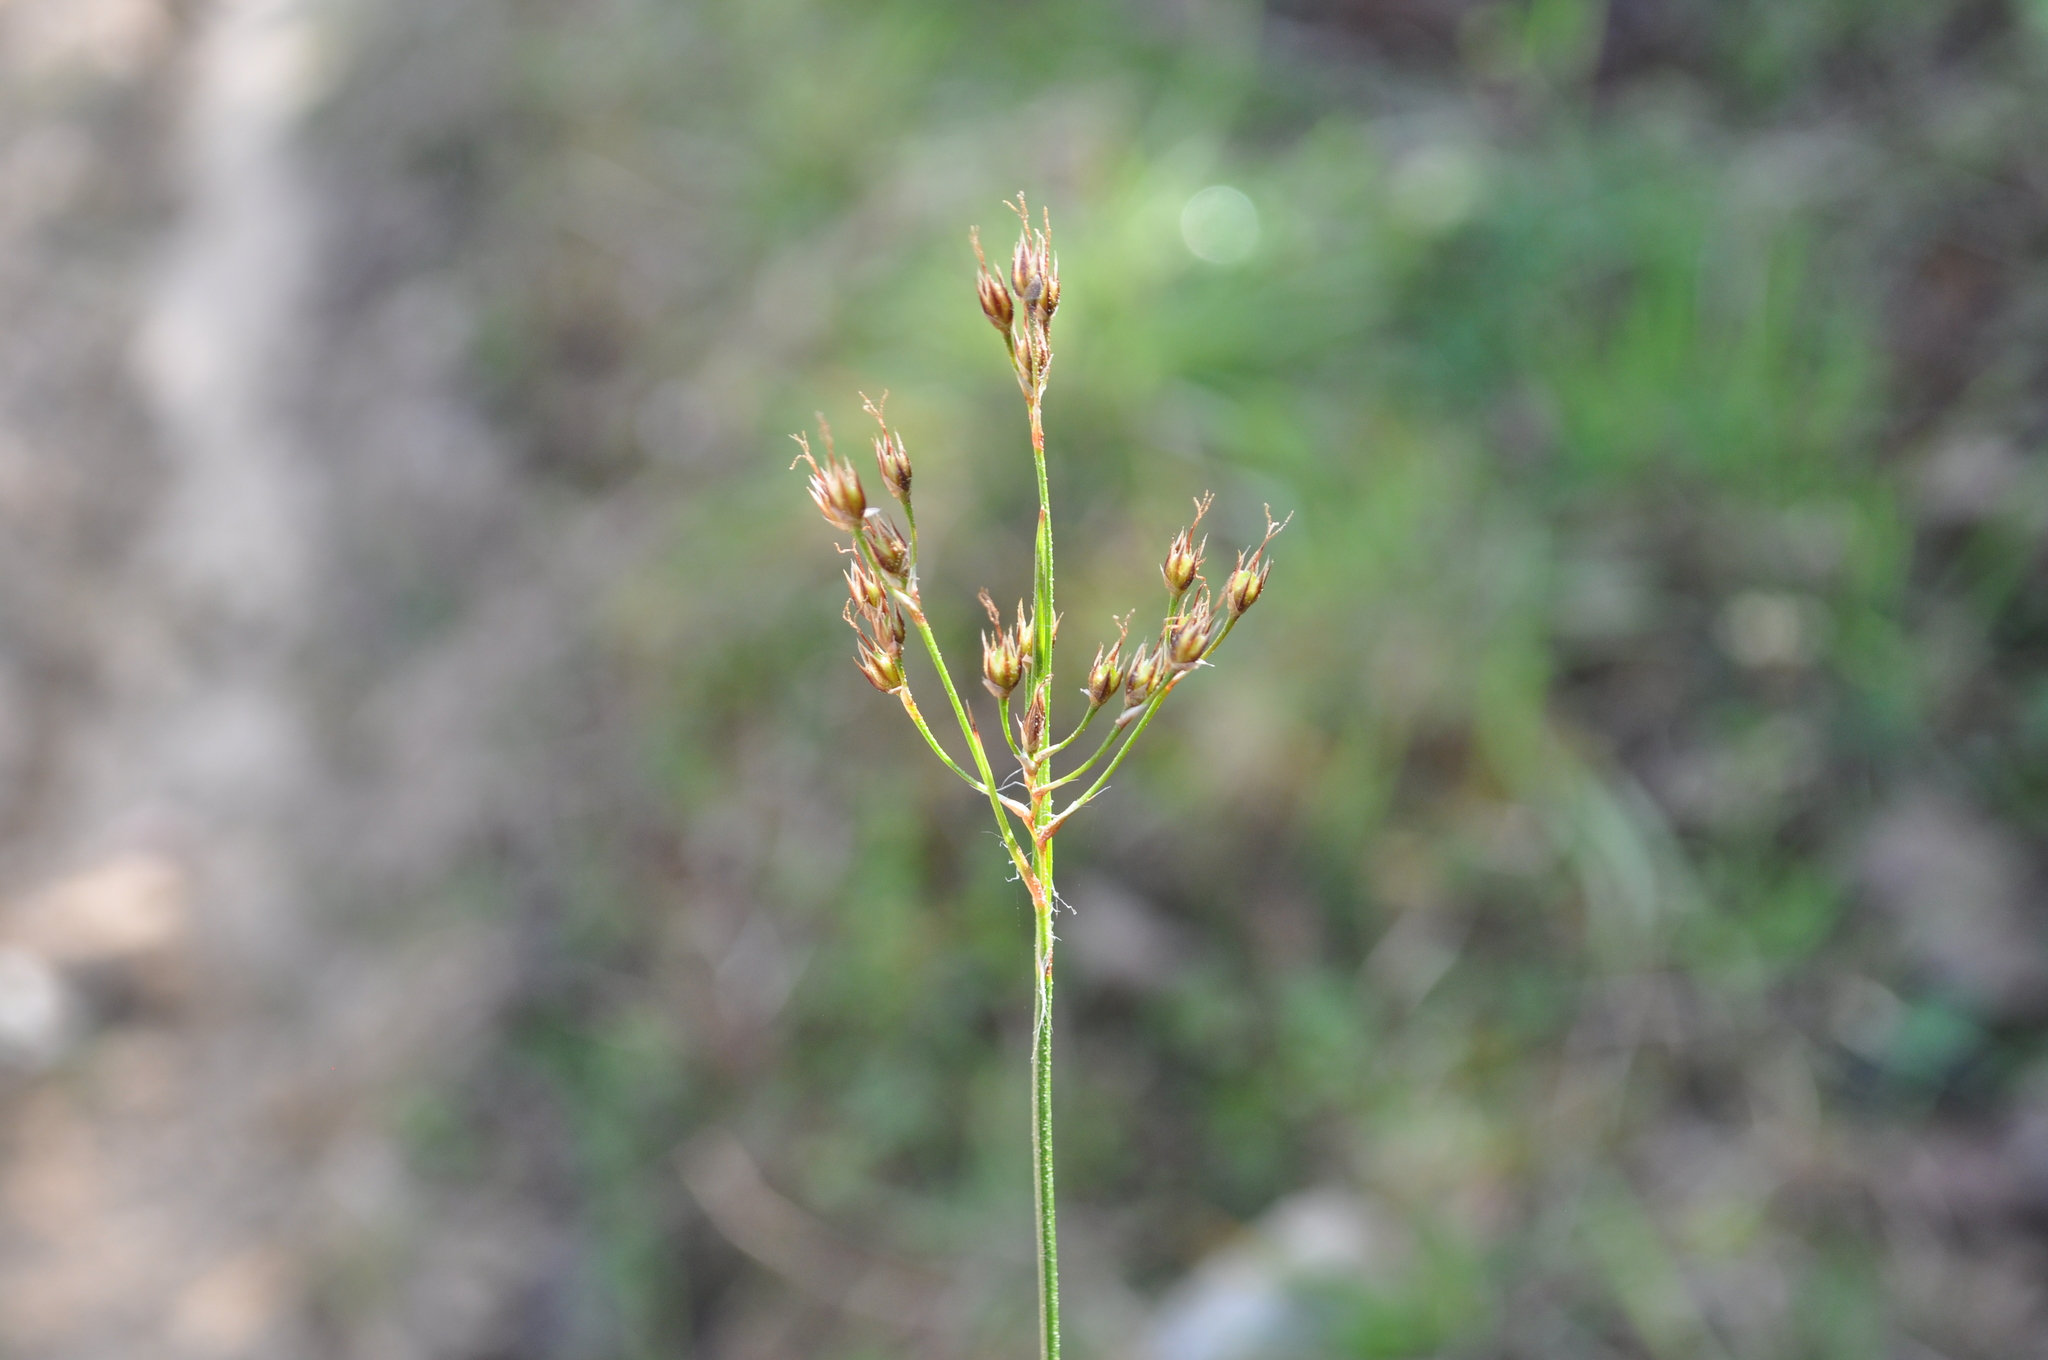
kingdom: Plantae
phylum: Tracheophyta
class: Liliopsida
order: Poales
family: Juncaceae
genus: Luzula
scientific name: Luzula forsteri
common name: Southern wood-rush
